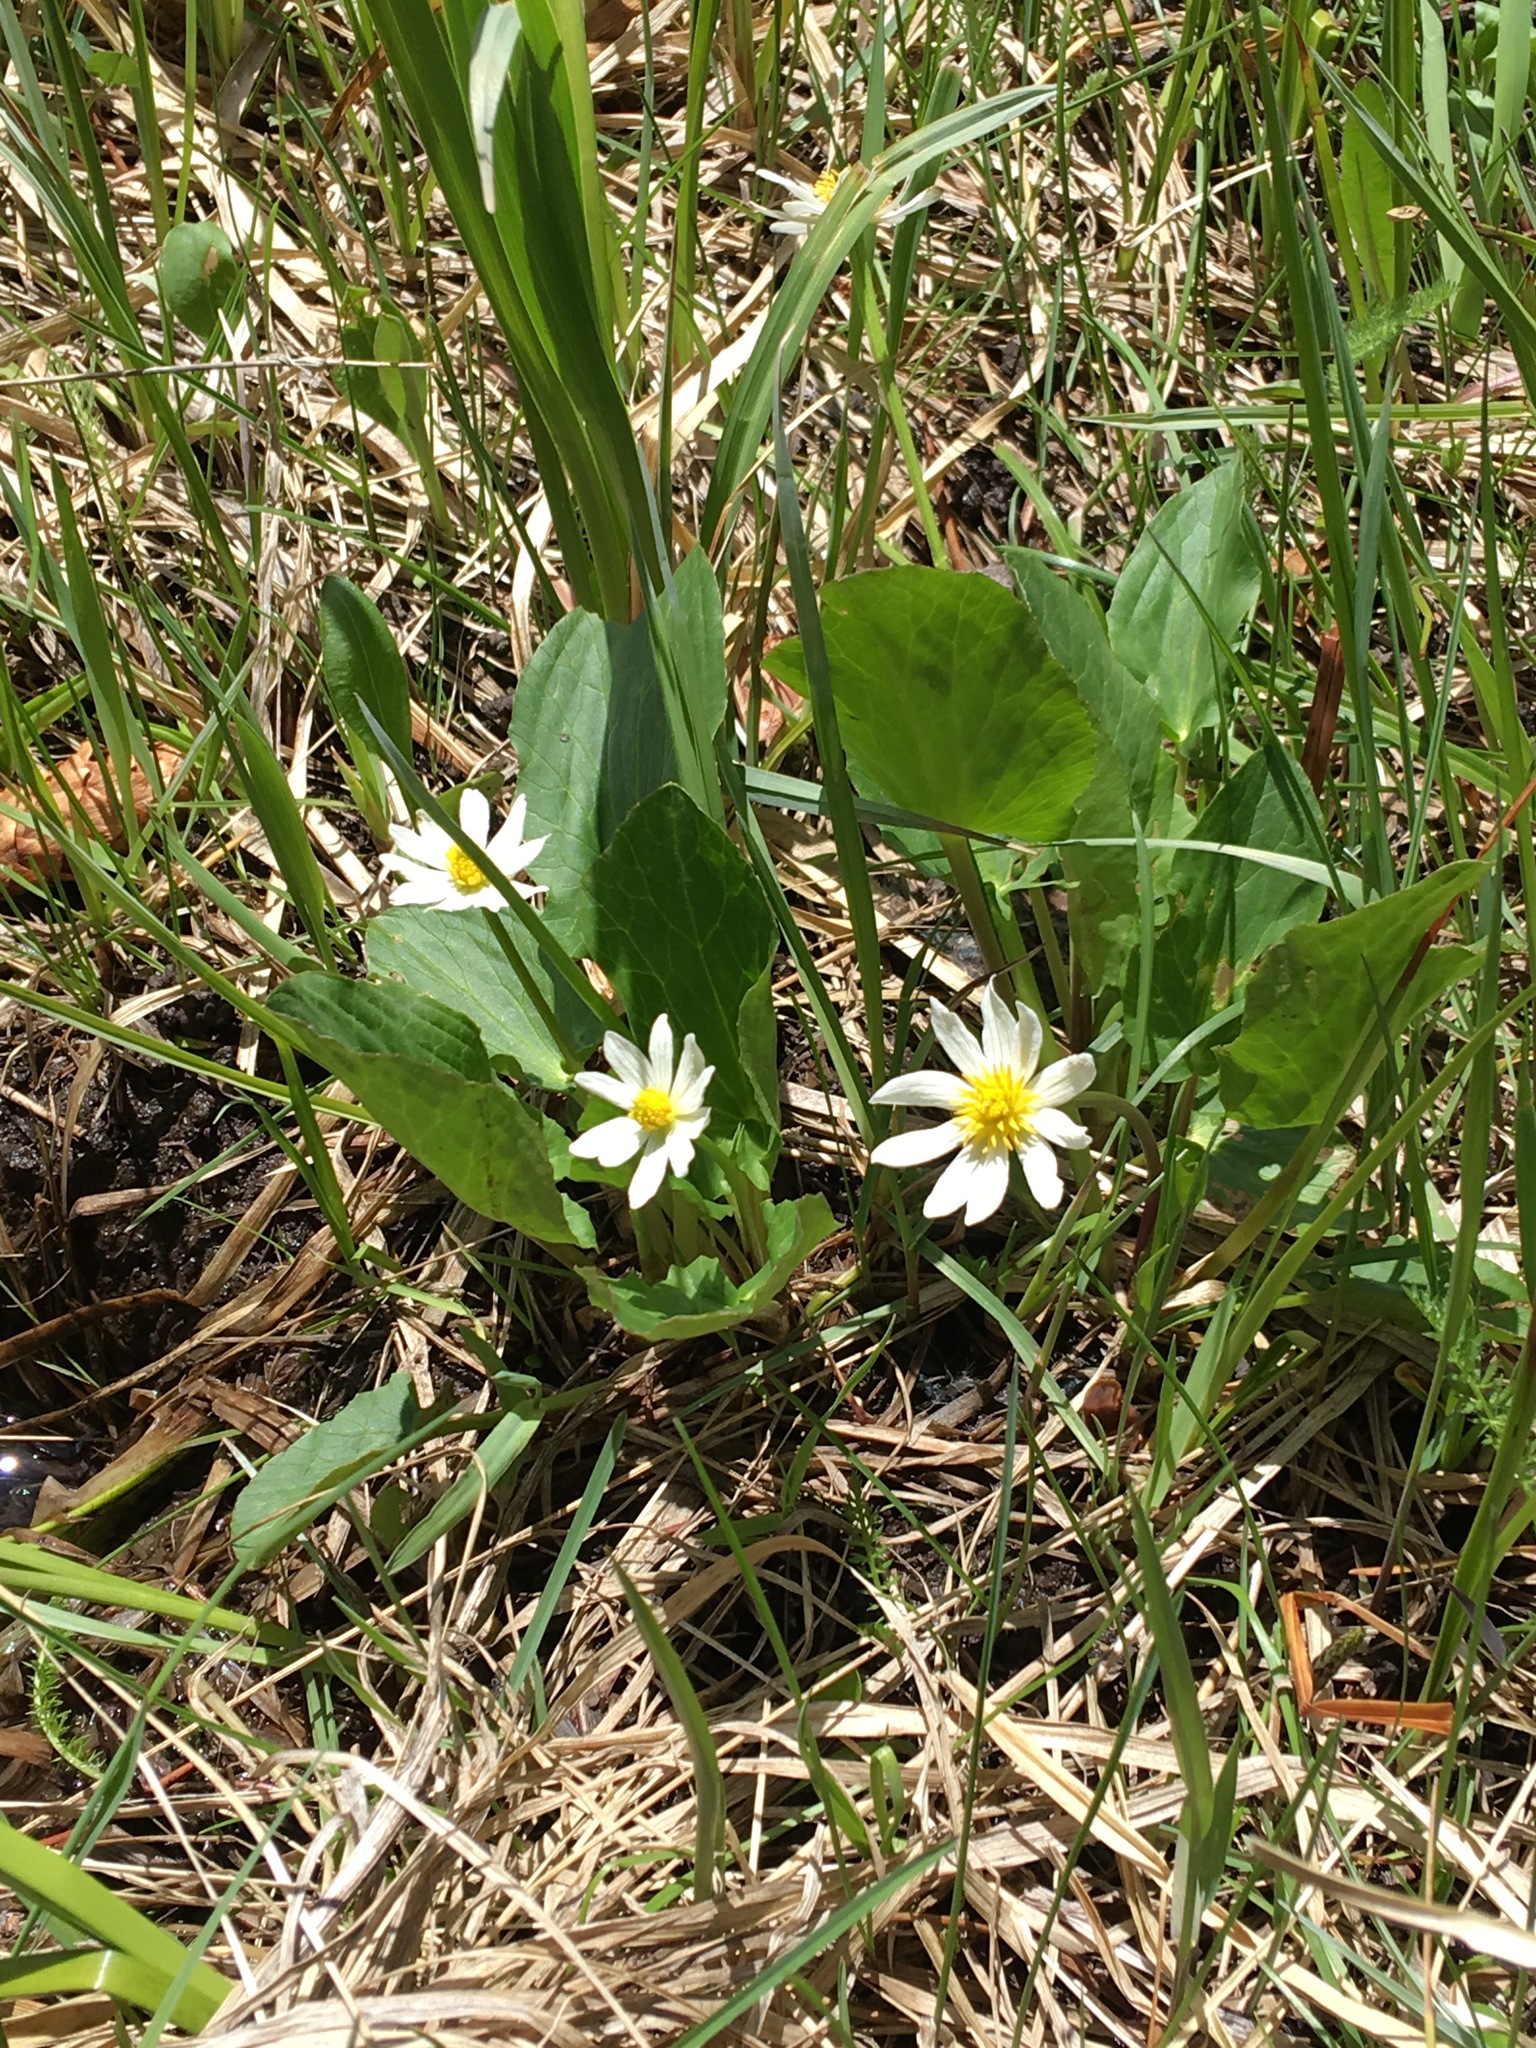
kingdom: Plantae
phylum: Tracheophyta
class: Magnoliopsida
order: Ranunculales
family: Ranunculaceae
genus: Caltha
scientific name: Caltha leptosepala
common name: Elkslip
